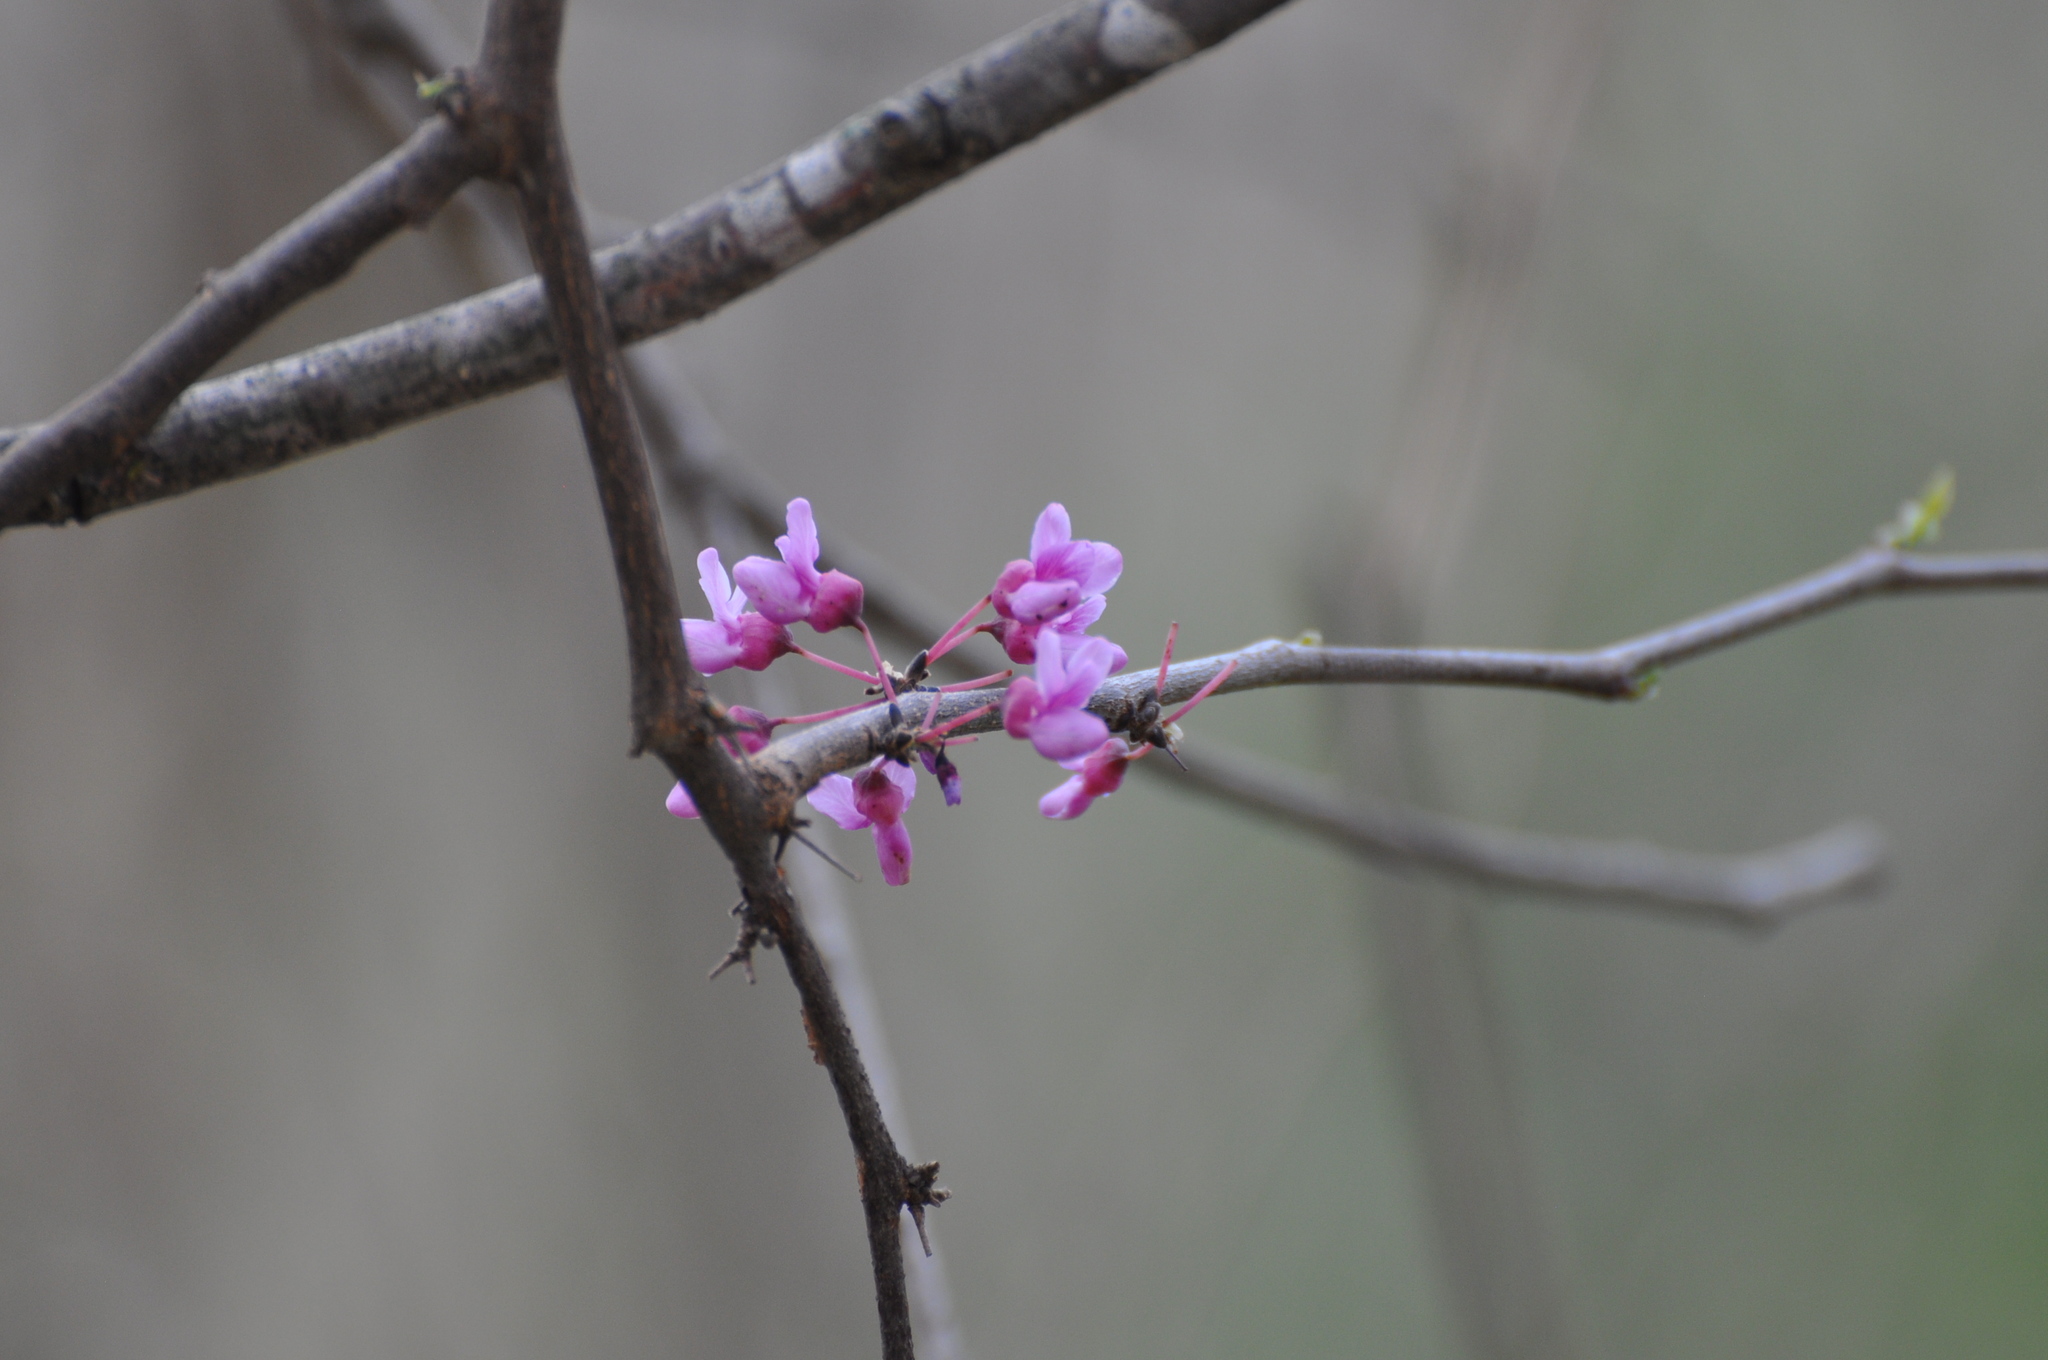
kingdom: Plantae
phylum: Tracheophyta
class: Magnoliopsida
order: Fabales
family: Fabaceae
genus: Cercis
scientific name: Cercis canadensis
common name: Eastern redbud
